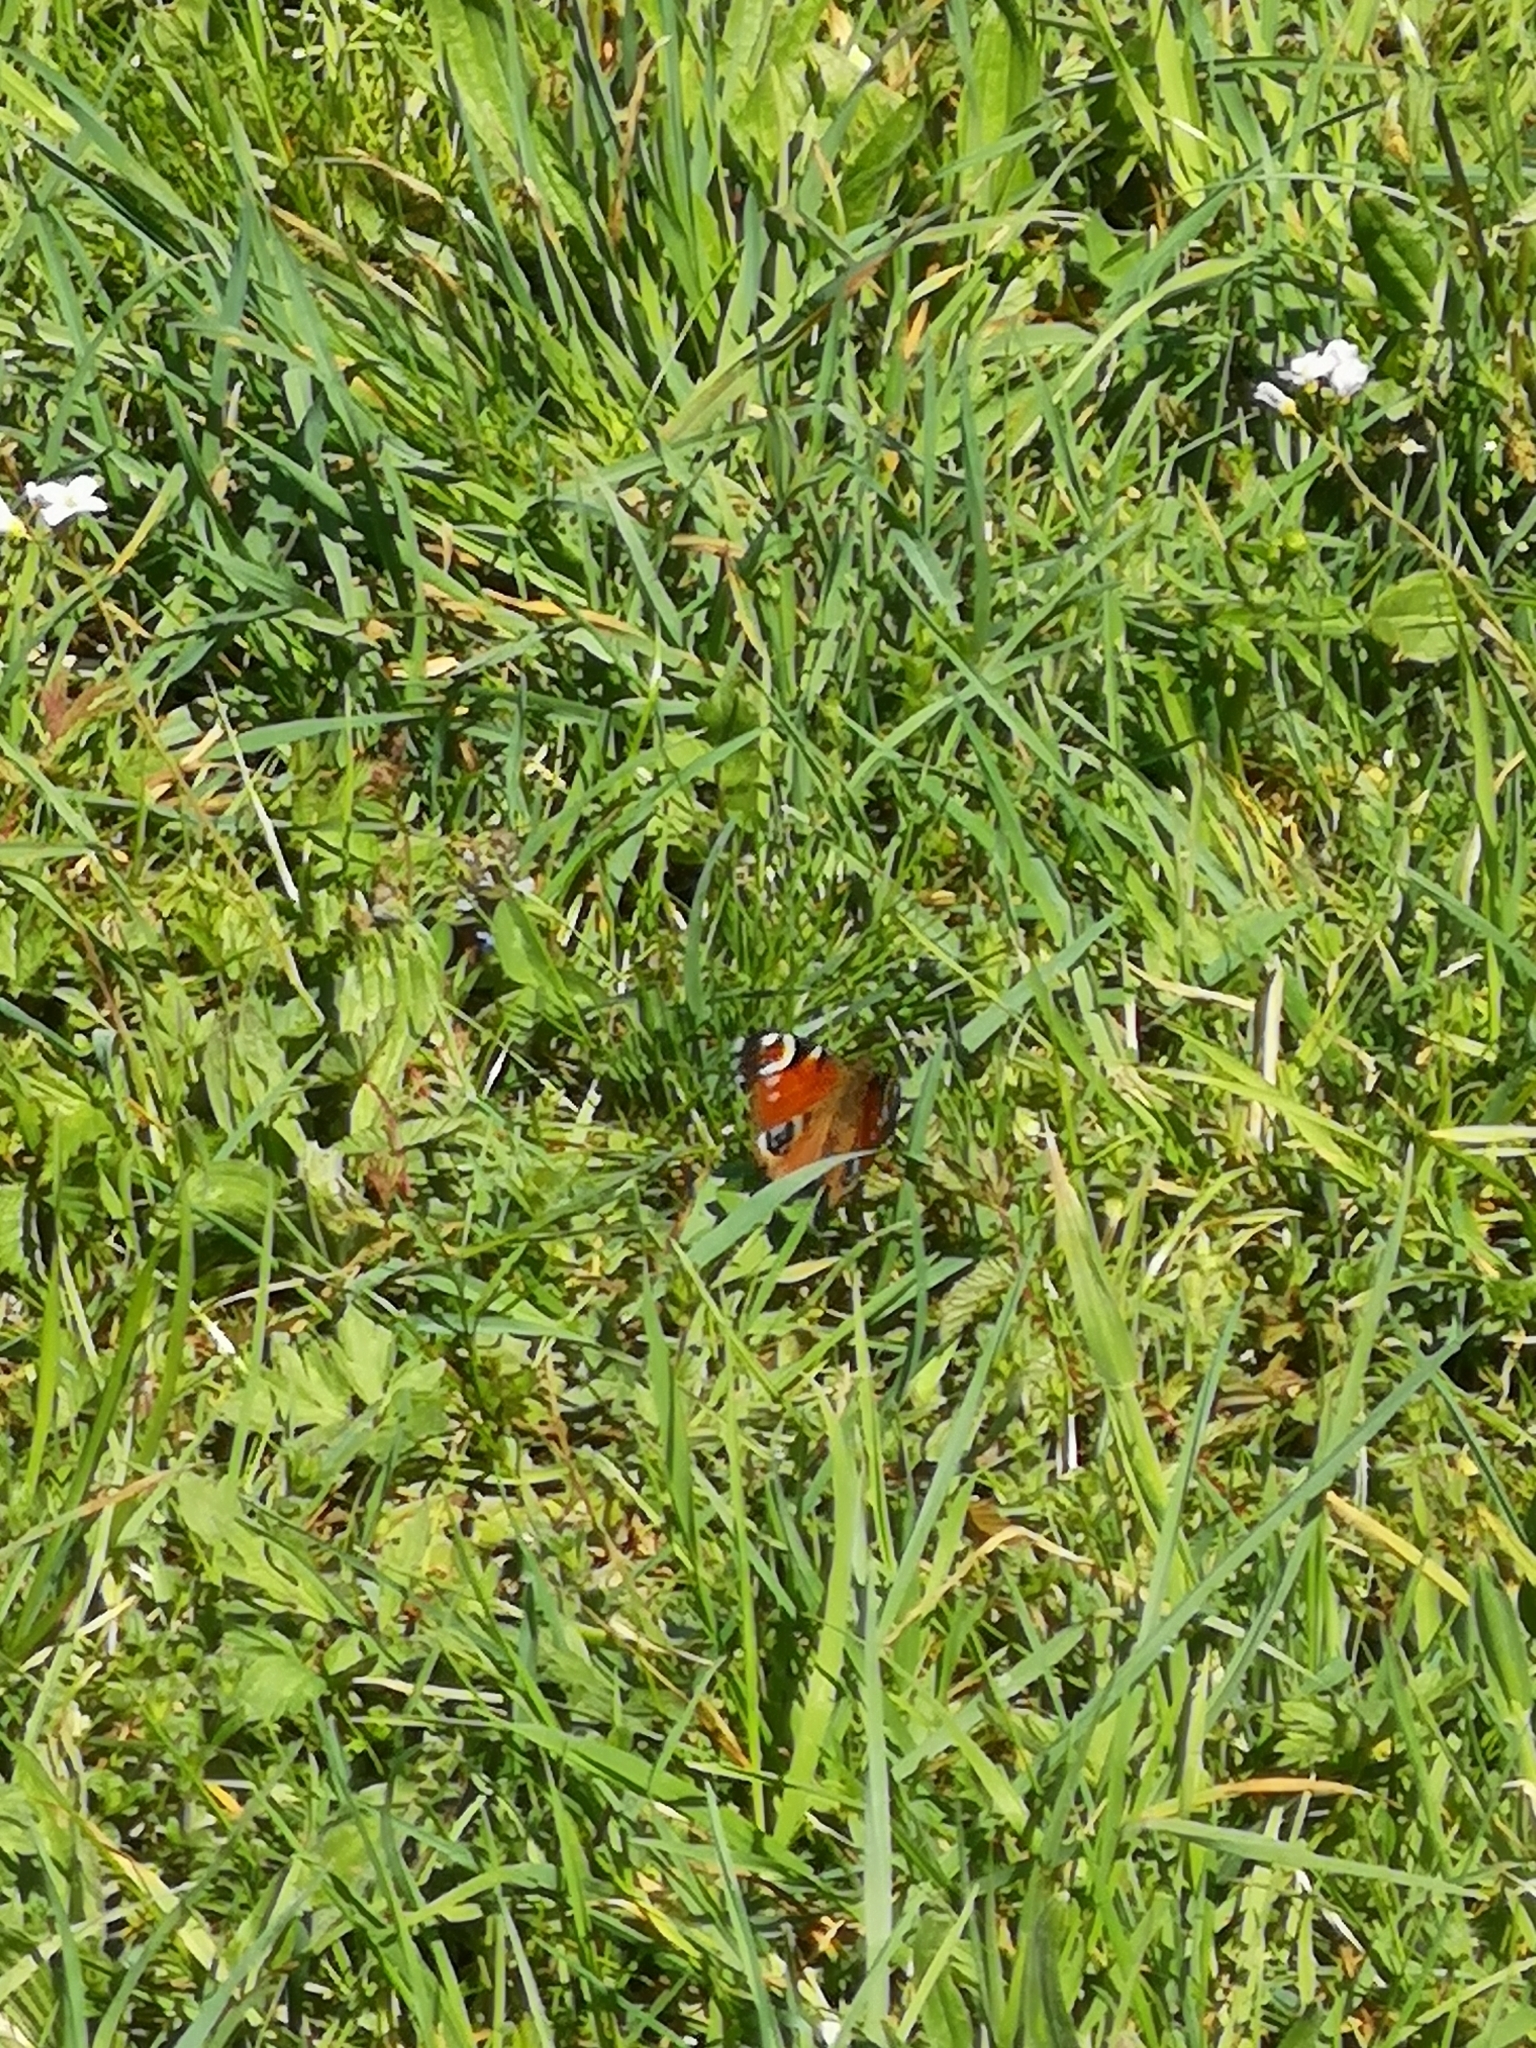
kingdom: Animalia
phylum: Arthropoda
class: Insecta
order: Lepidoptera
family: Nymphalidae
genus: Aglais
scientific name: Aglais io
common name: Peacock
